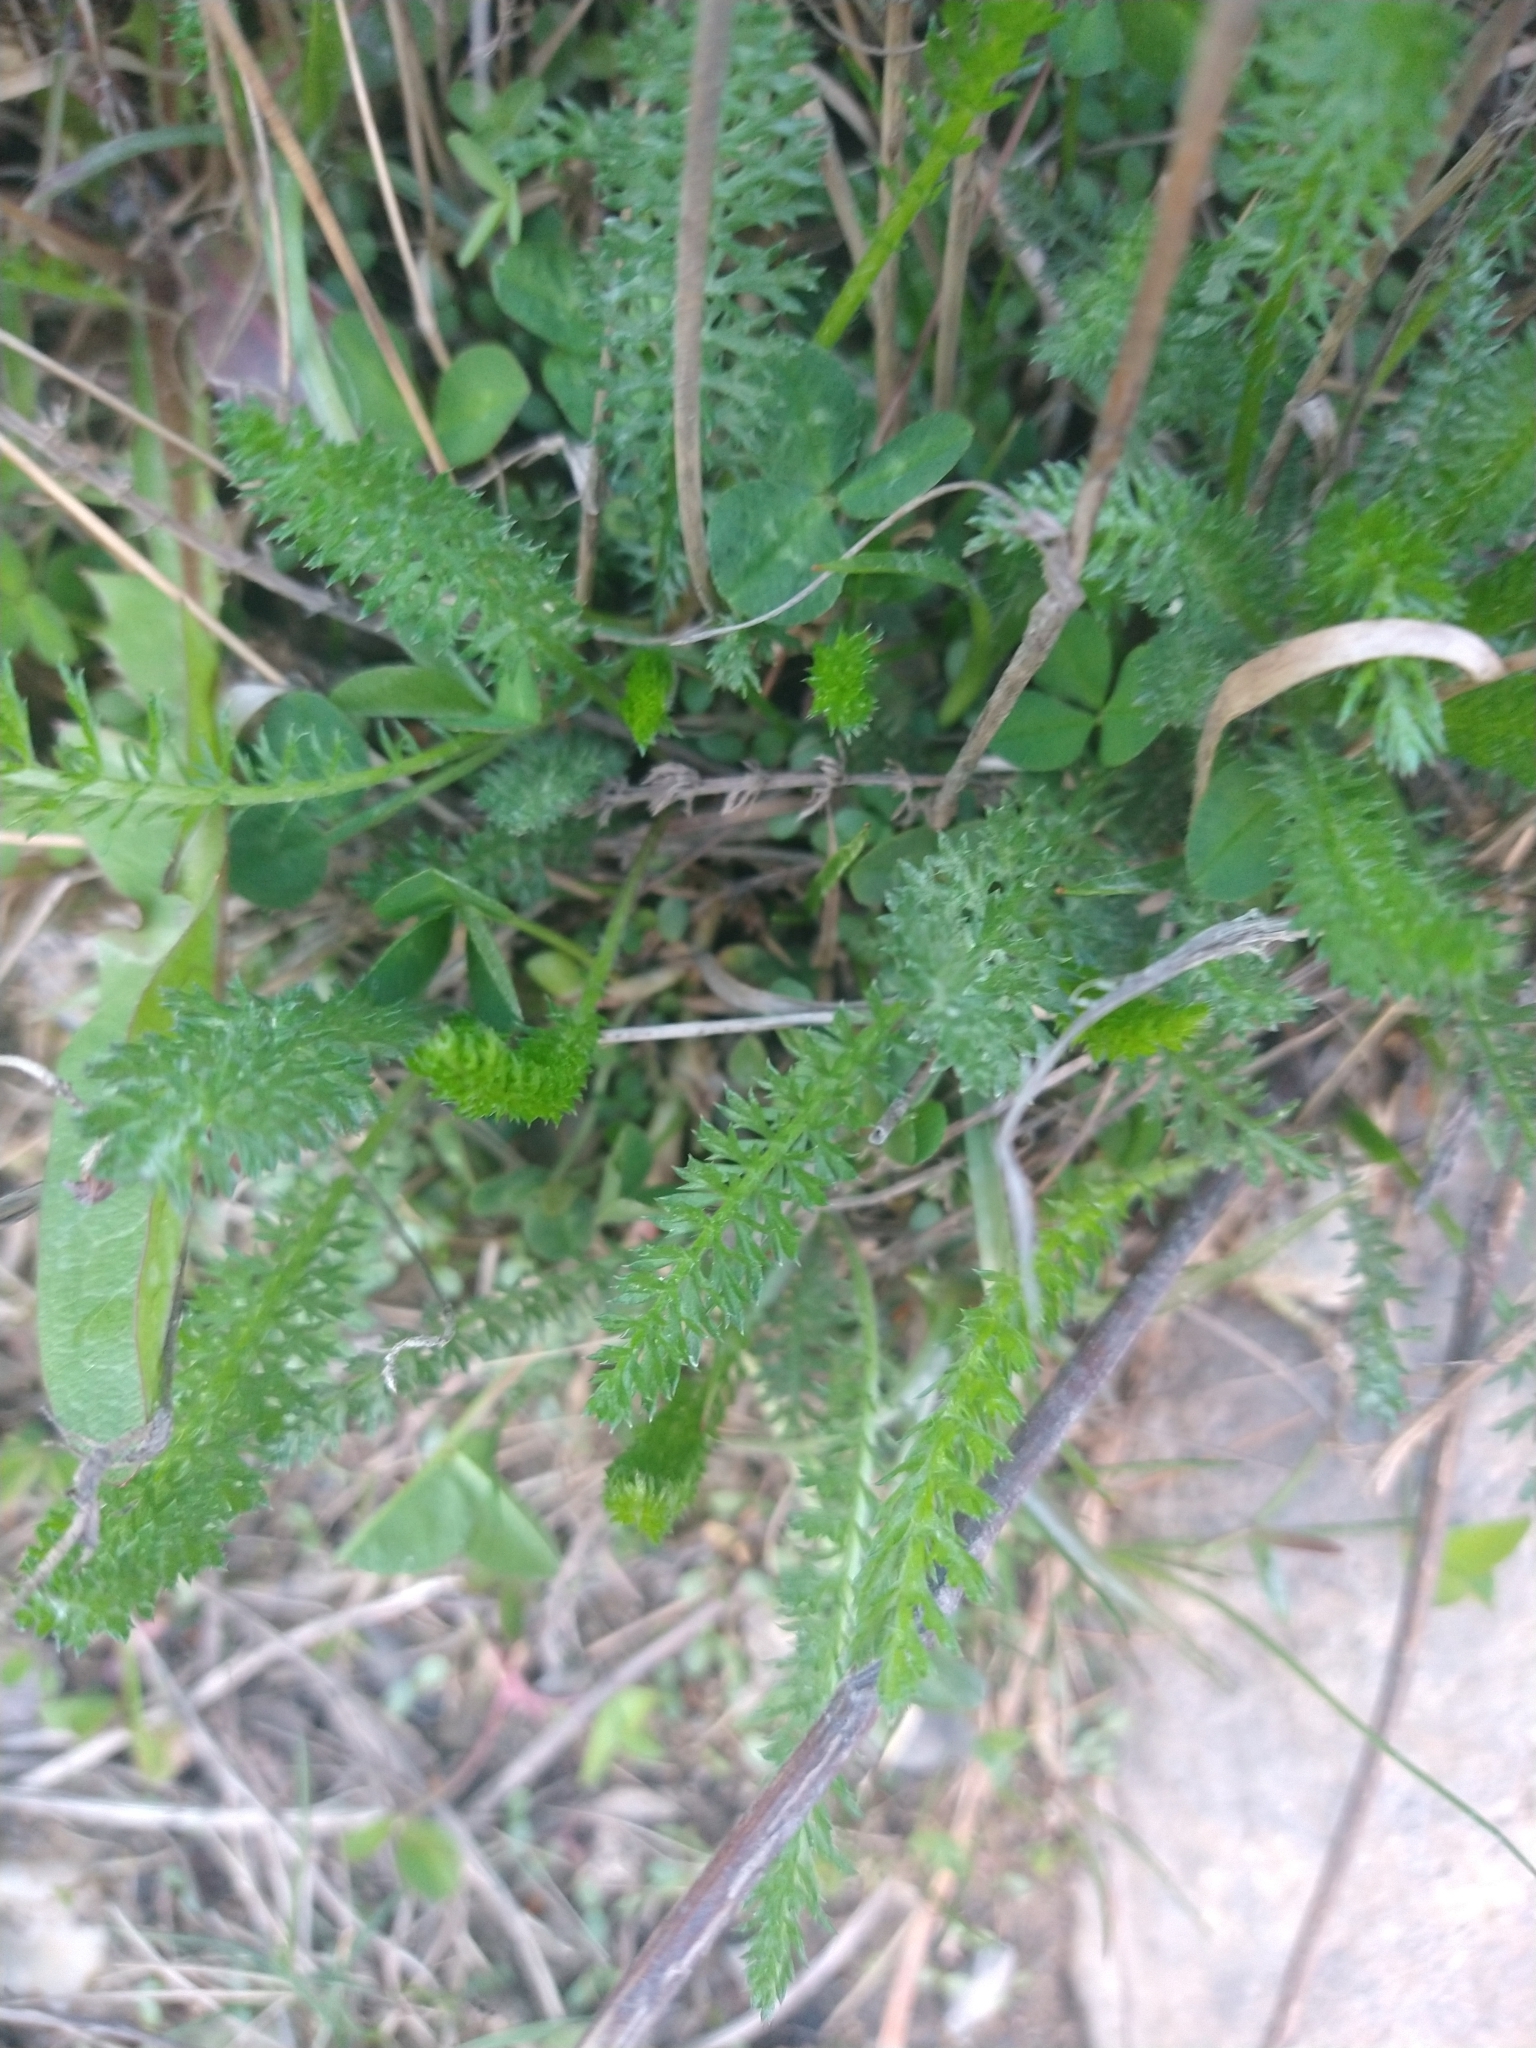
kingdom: Plantae
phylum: Tracheophyta
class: Magnoliopsida
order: Asterales
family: Asteraceae
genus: Achillea
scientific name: Achillea millefolium
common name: Yarrow
